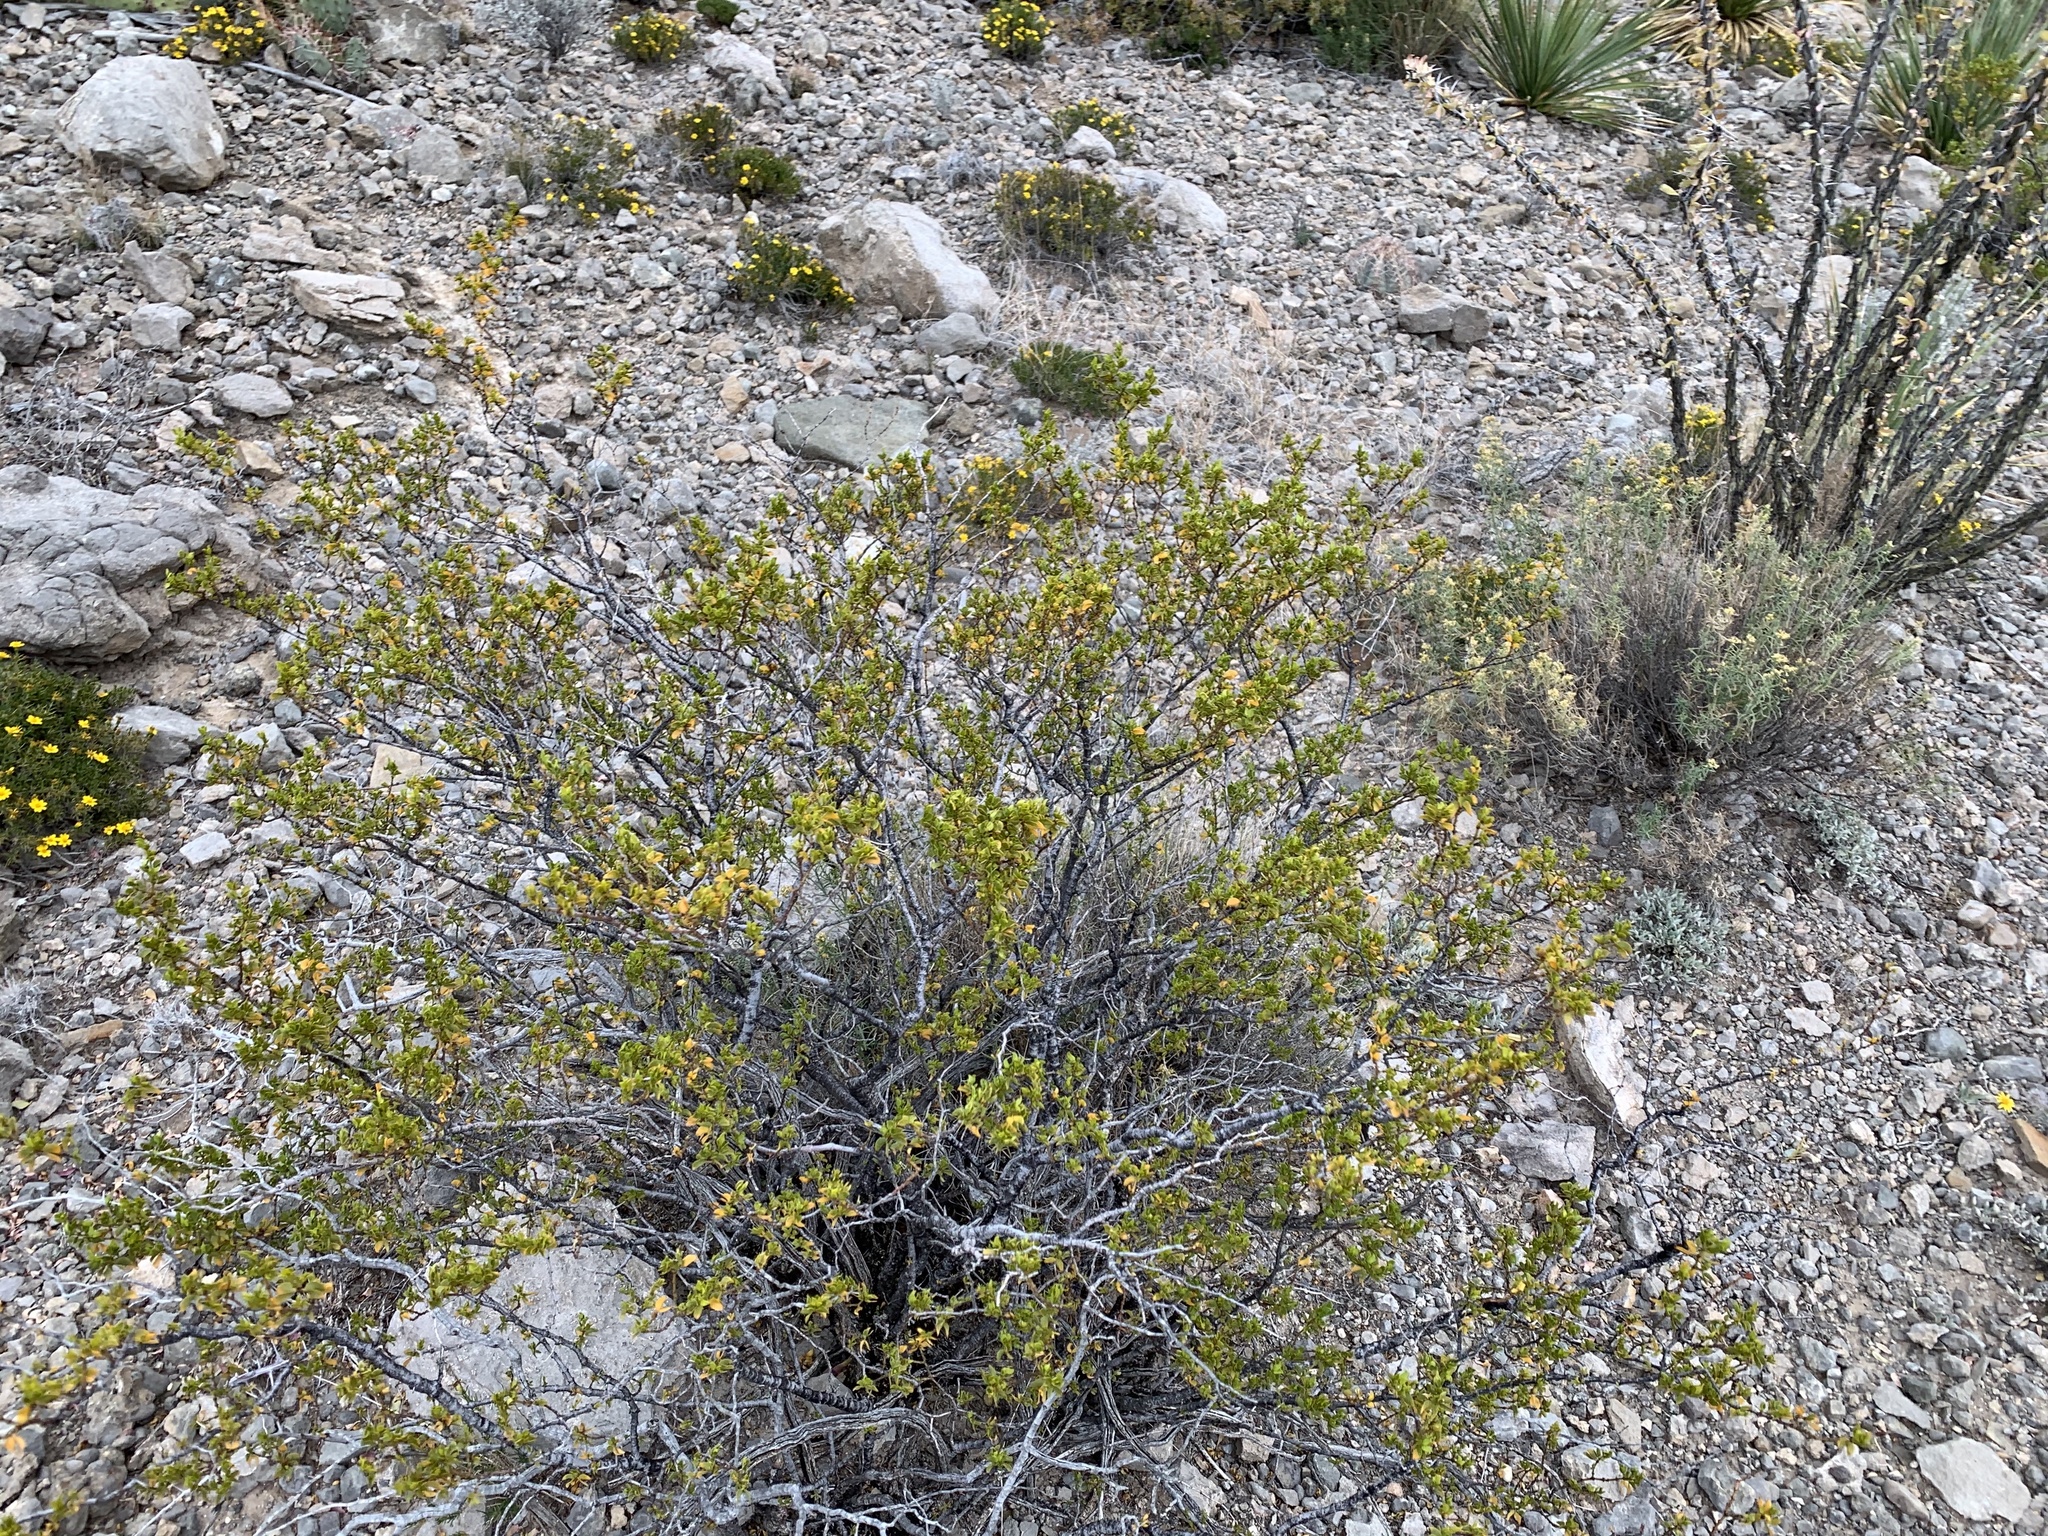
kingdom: Plantae
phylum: Tracheophyta
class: Magnoliopsida
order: Zygophyllales
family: Zygophyllaceae
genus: Larrea
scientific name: Larrea tridentata
